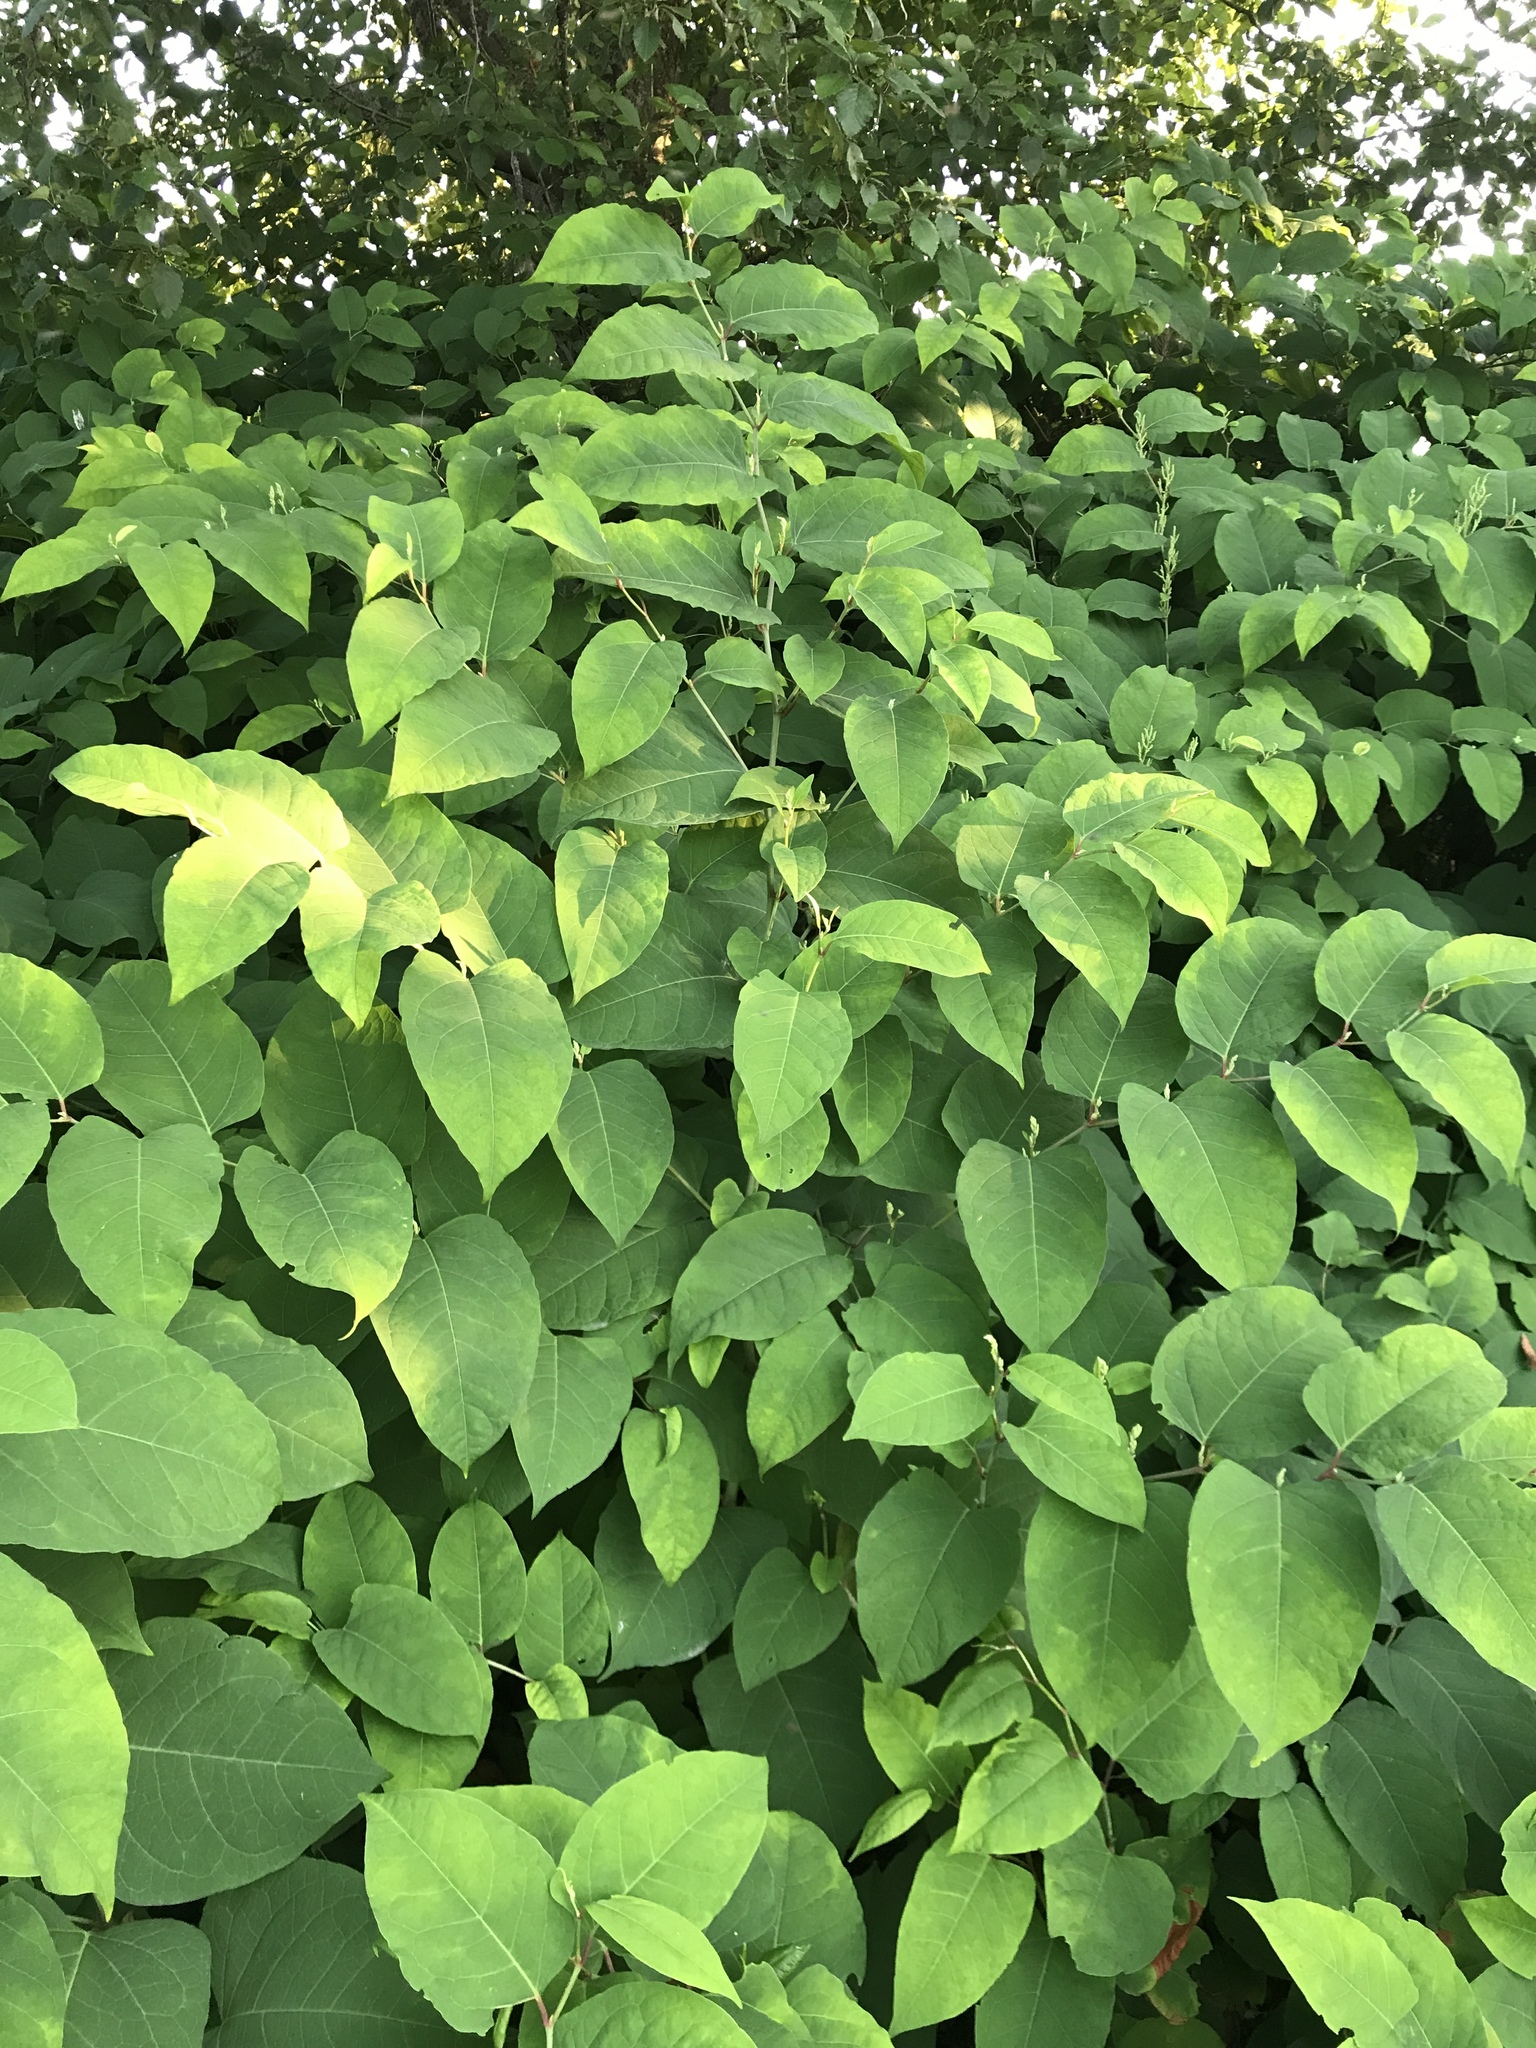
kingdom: Plantae
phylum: Tracheophyta
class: Magnoliopsida
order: Caryophyllales
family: Polygonaceae
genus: Reynoutria
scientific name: Reynoutria japonica
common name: Japanese knotweed
